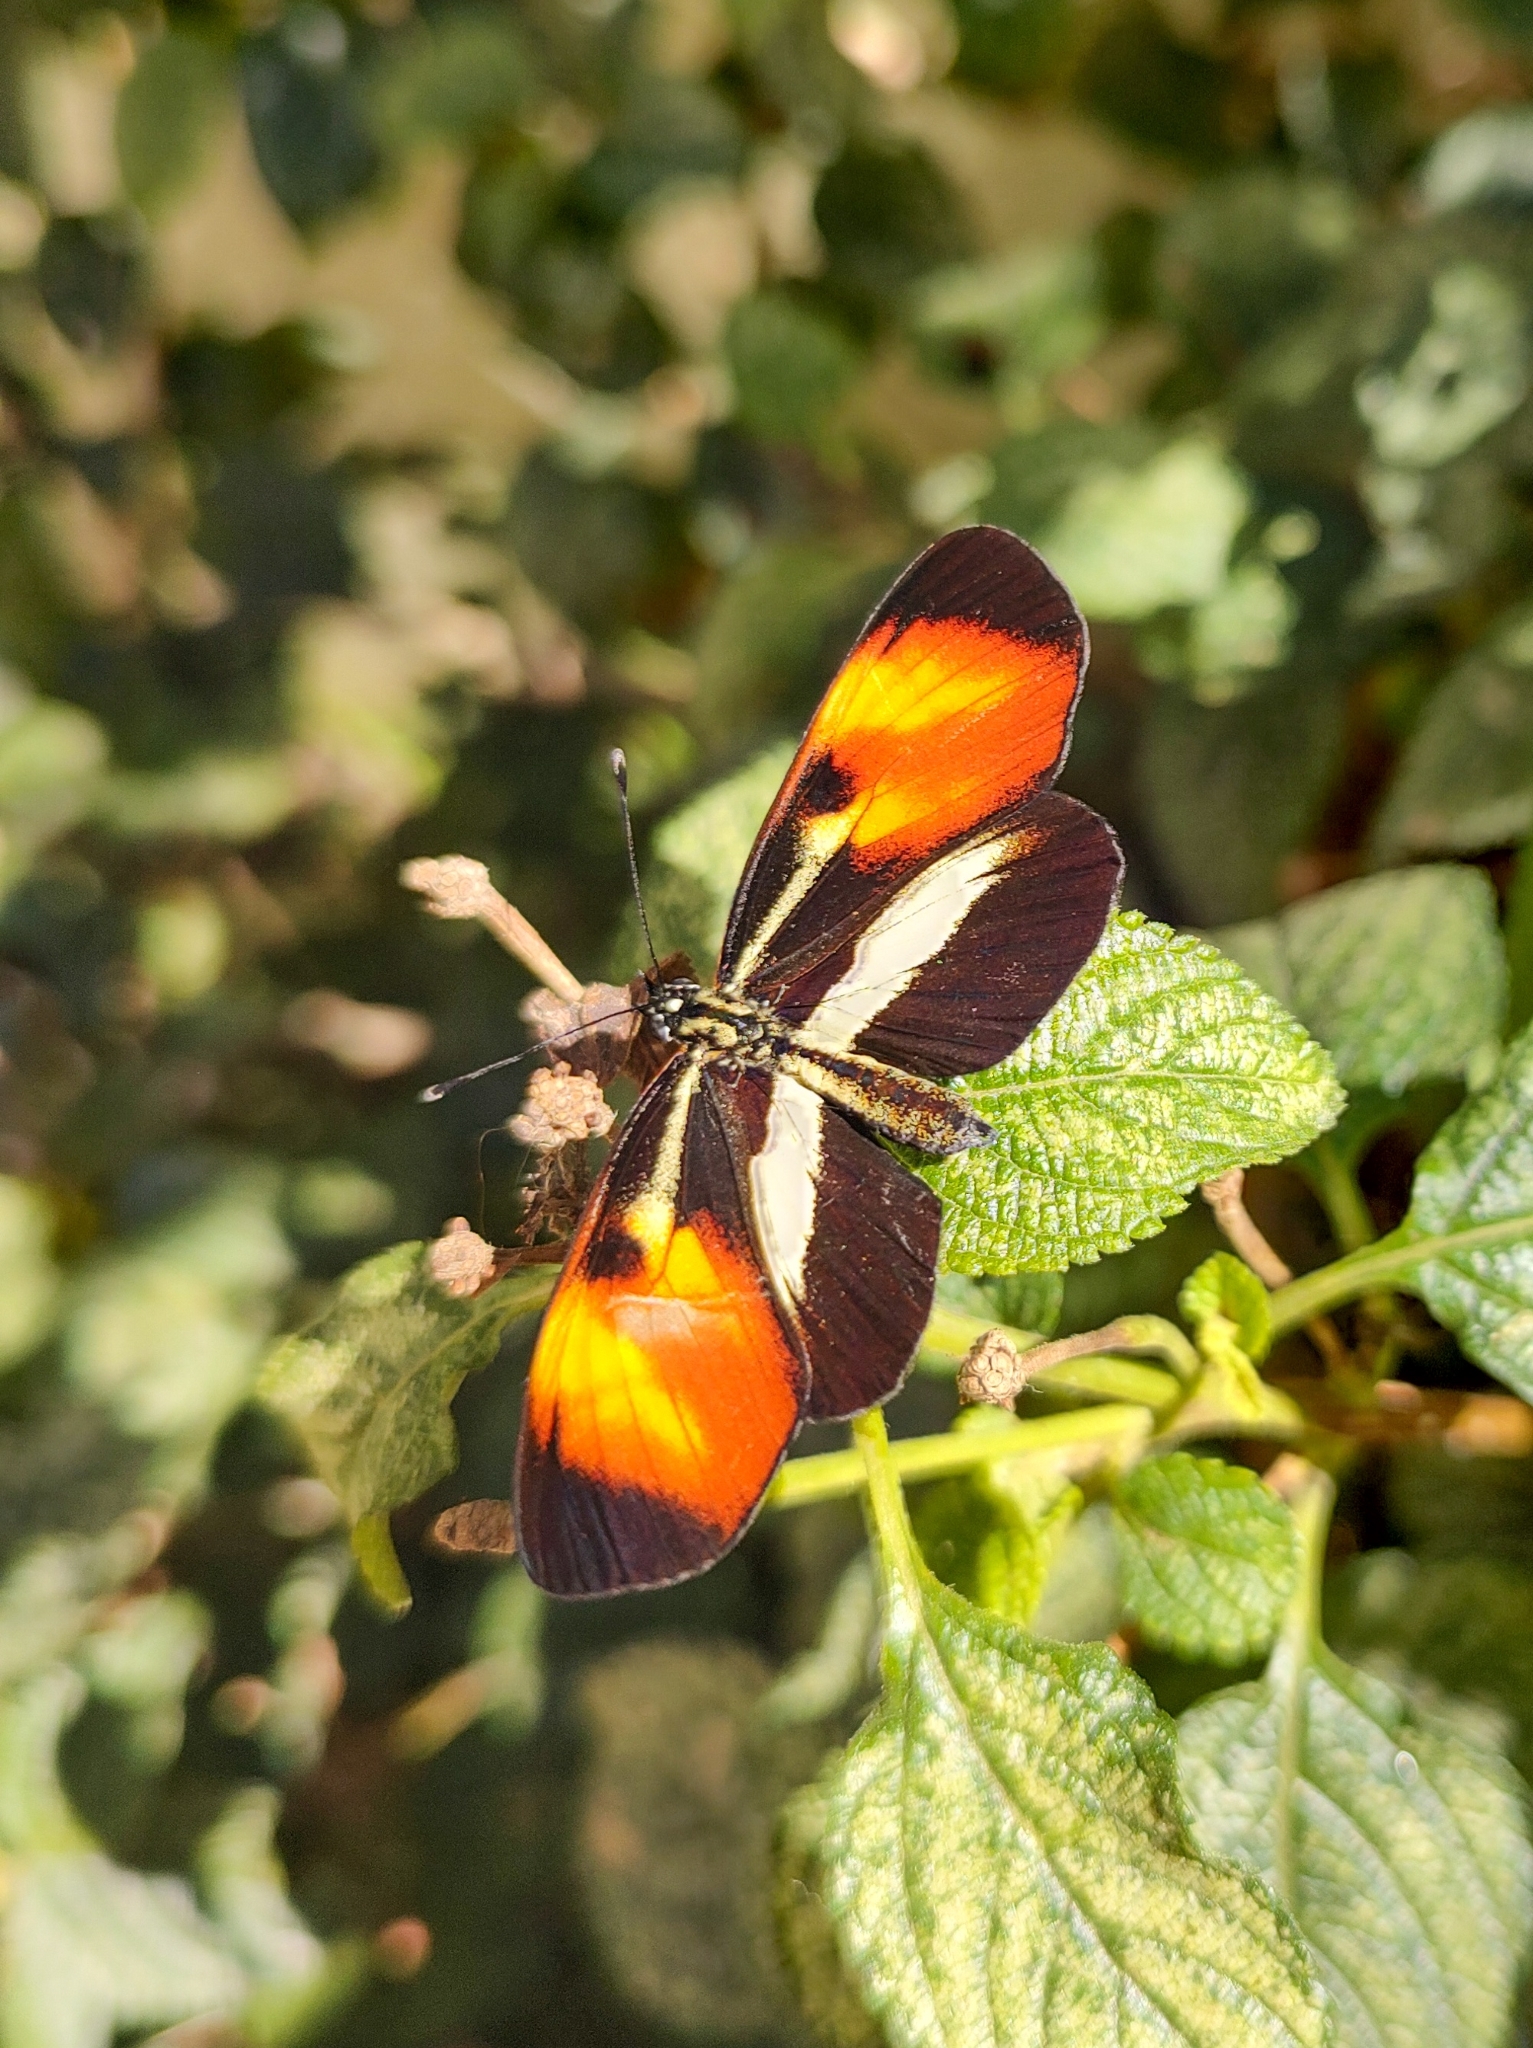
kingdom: Animalia
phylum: Arthropoda
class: Insecta
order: Lepidoptera
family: Nymphalidae
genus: Eresia
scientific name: Eresia lansdorfi
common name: Lansdorf's crescent
